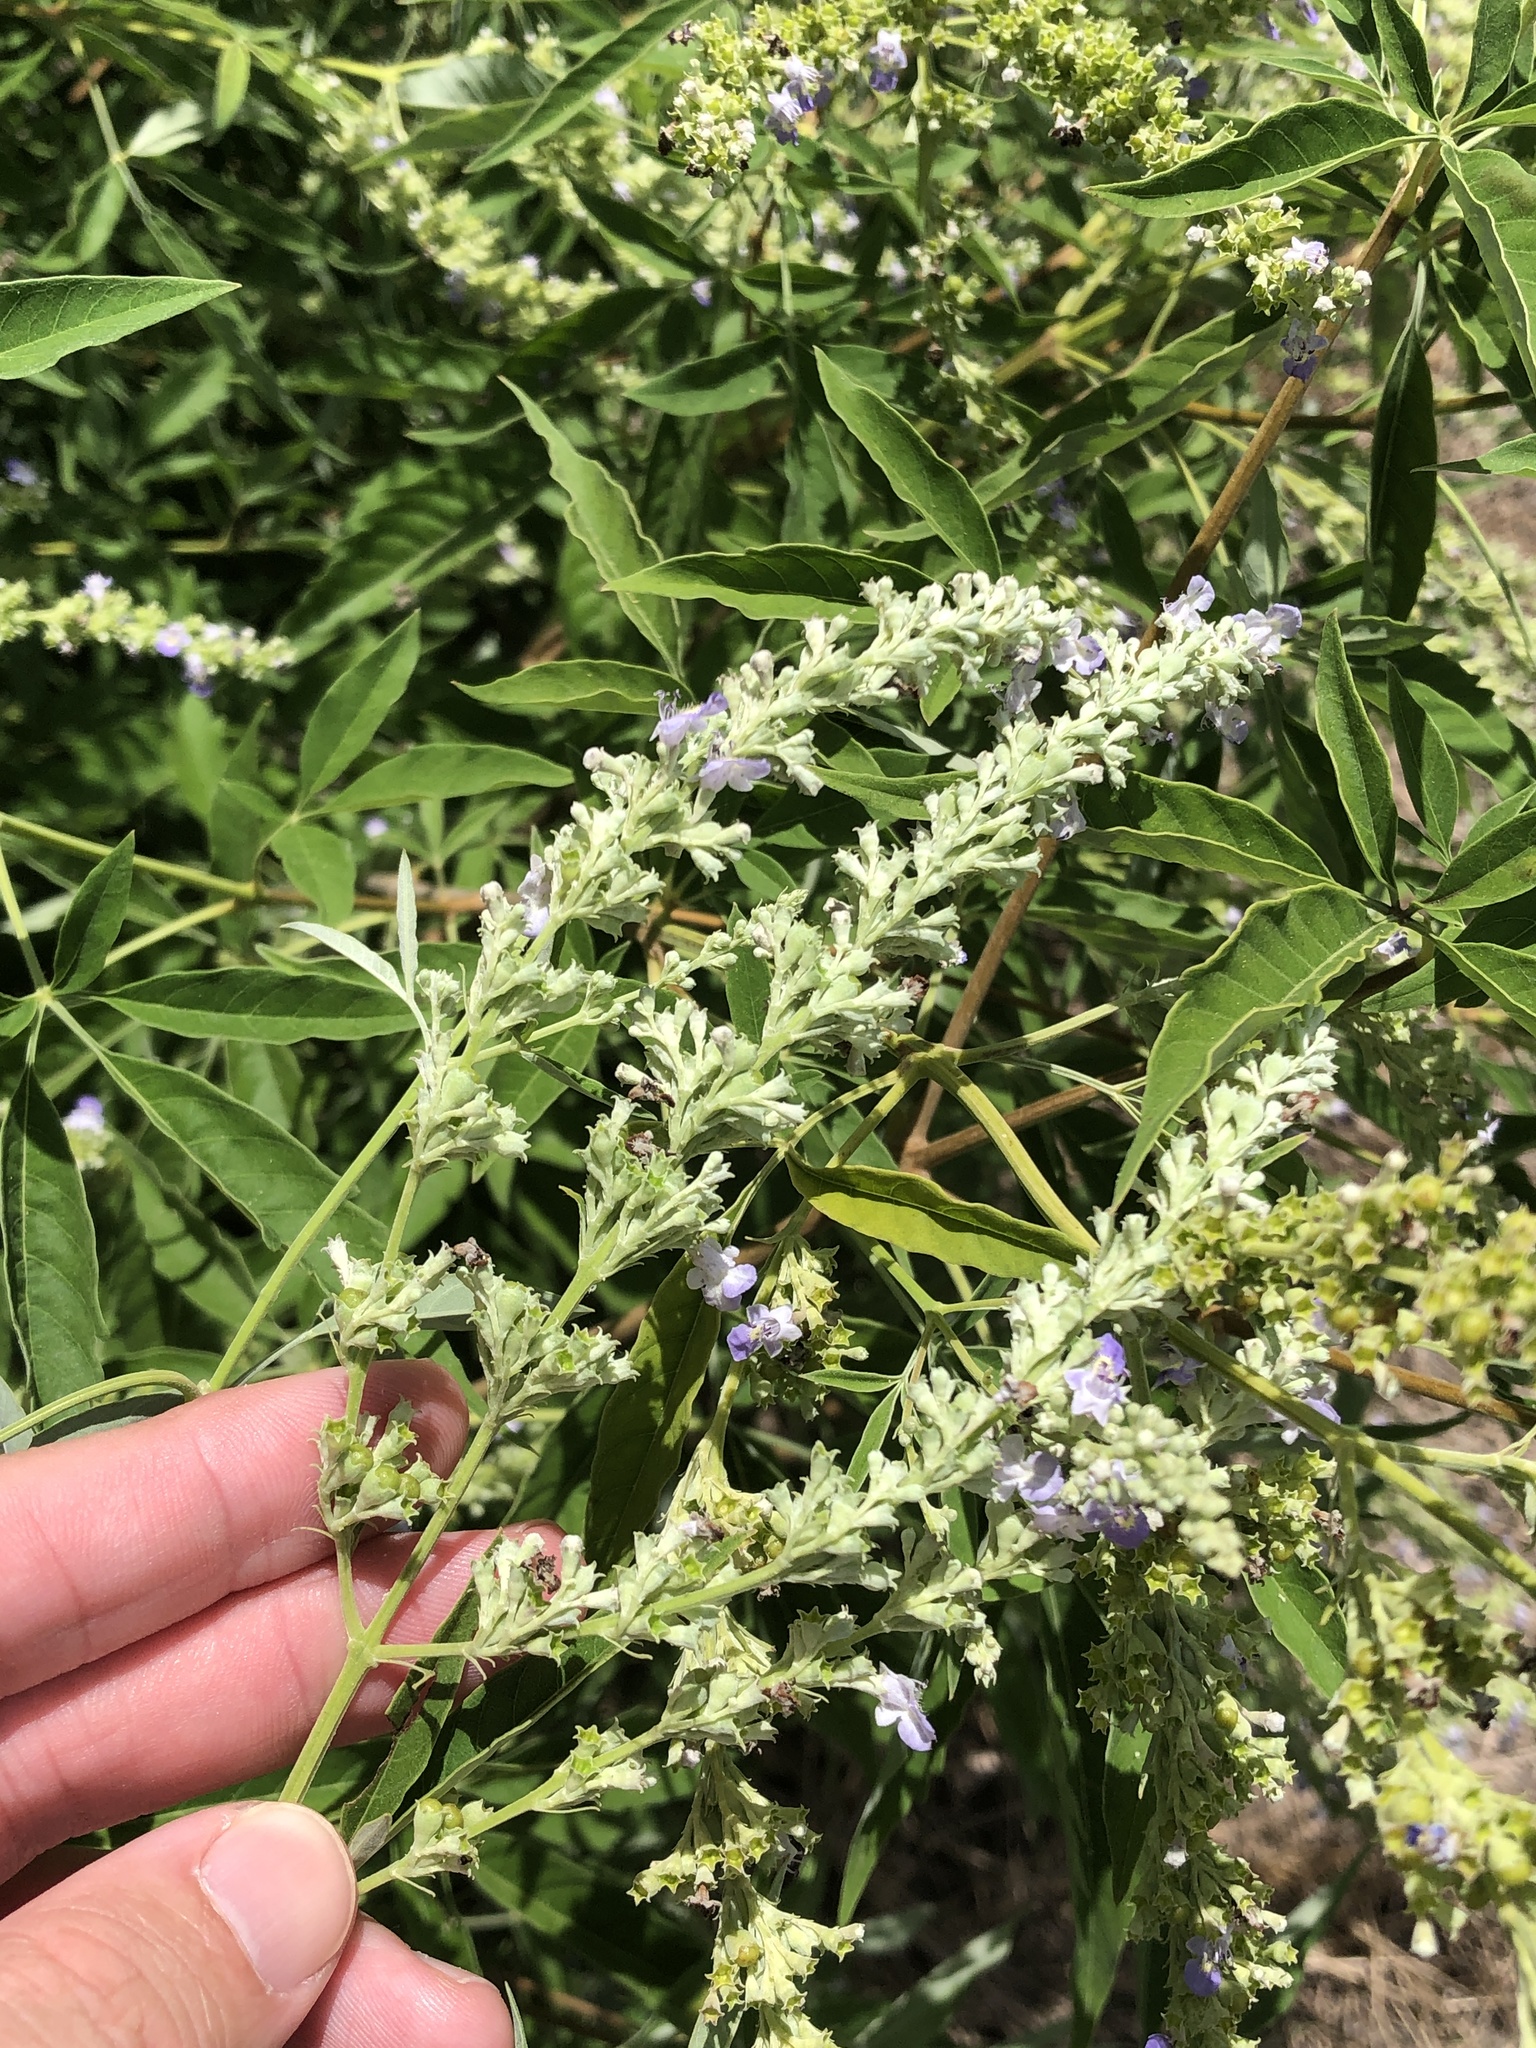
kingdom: Plantae
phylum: Tracheophyta
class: Magnoliopsida
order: Lamiales
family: Lamiaceae
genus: Vitex
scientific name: Vitex negundo
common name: Chinese chastetree
